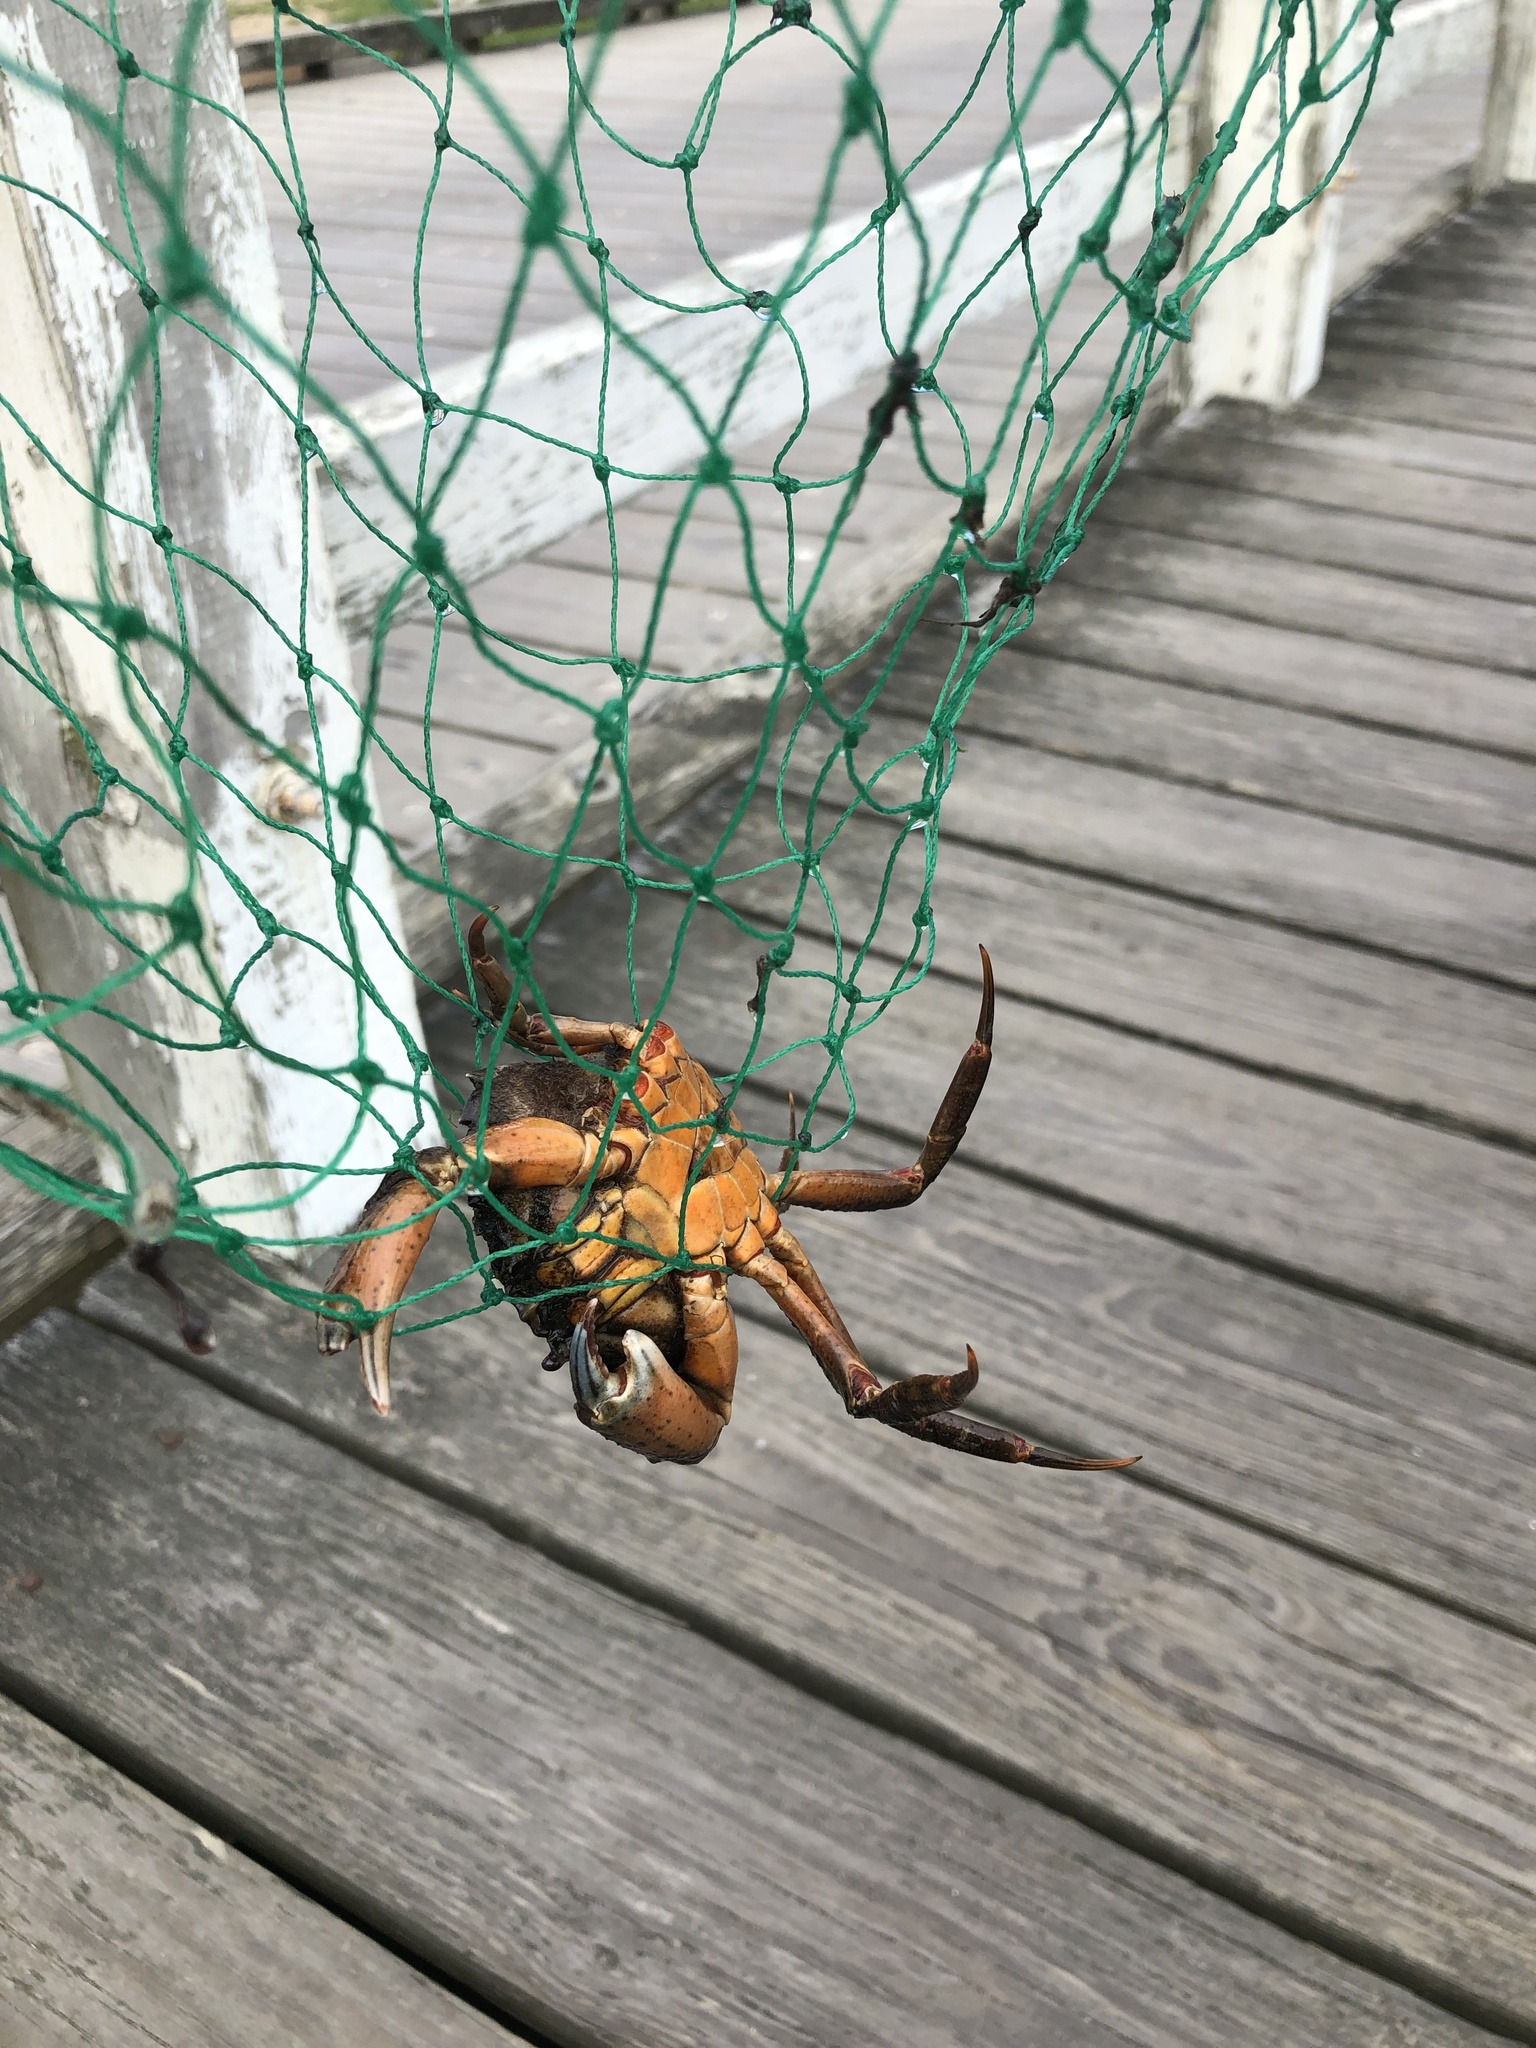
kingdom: Animalia
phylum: Arthropoda
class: Malacostraca
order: Decapoda
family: Carcinidae
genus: Carcinus
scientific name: Carcinus maenas
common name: European green crab
